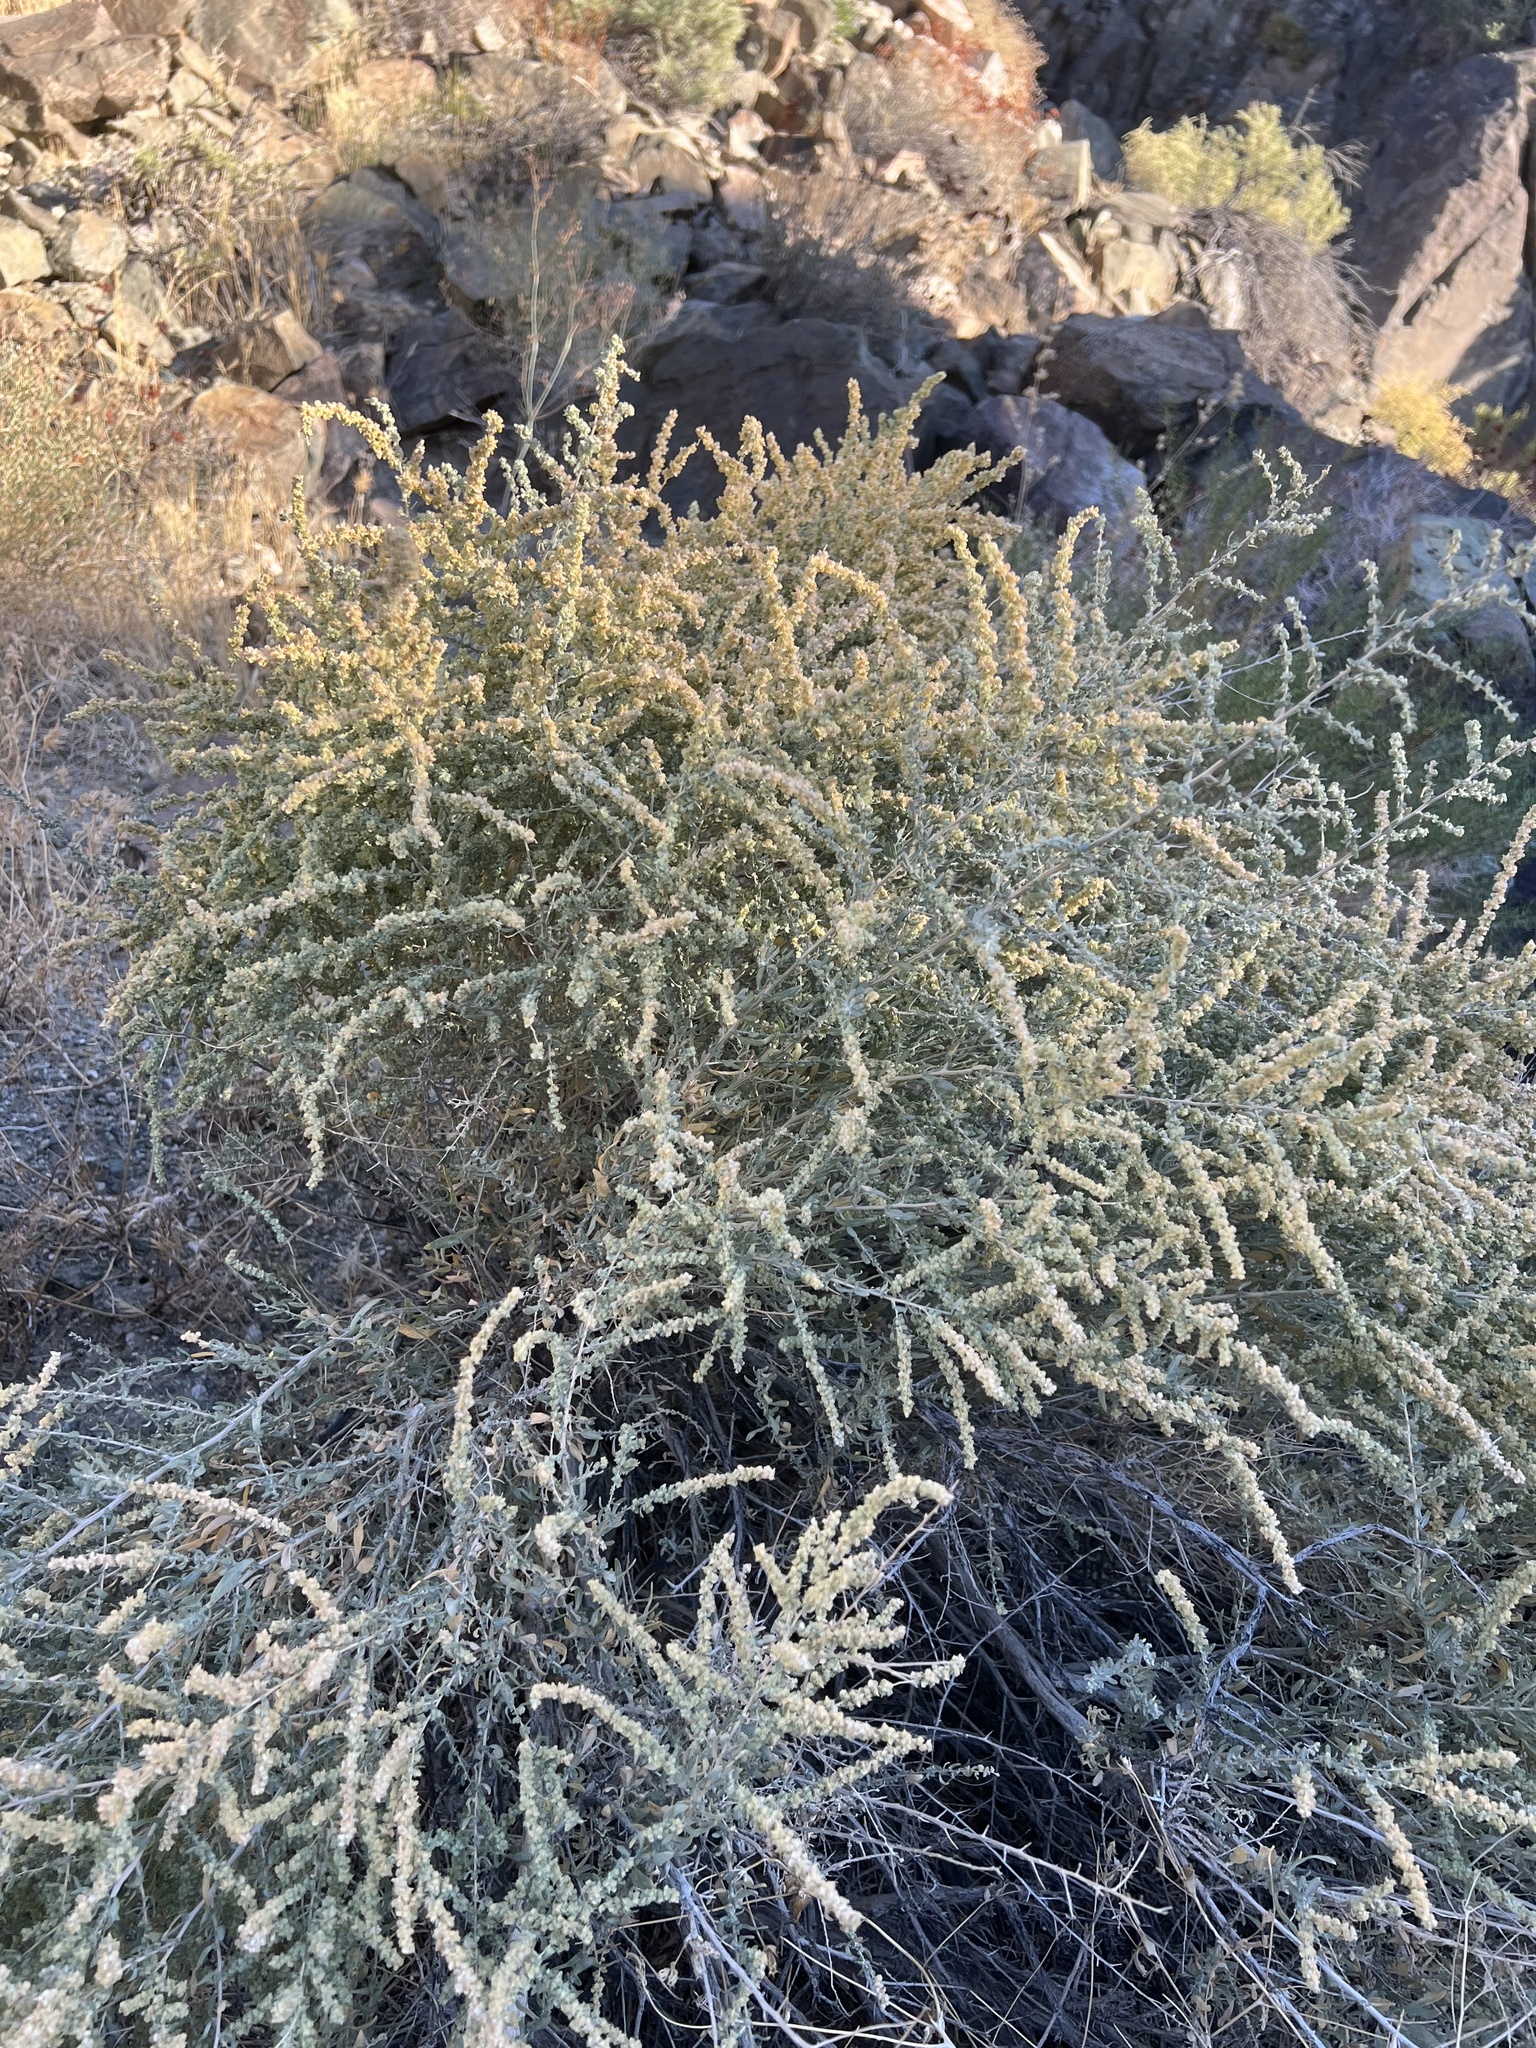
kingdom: Plantae
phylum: Tracheophyta
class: Magnoliopsida
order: Caryophyllales
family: Amaranthaceae
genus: Atriplex
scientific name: Atriplex polycarpa
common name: Desert saltbush
